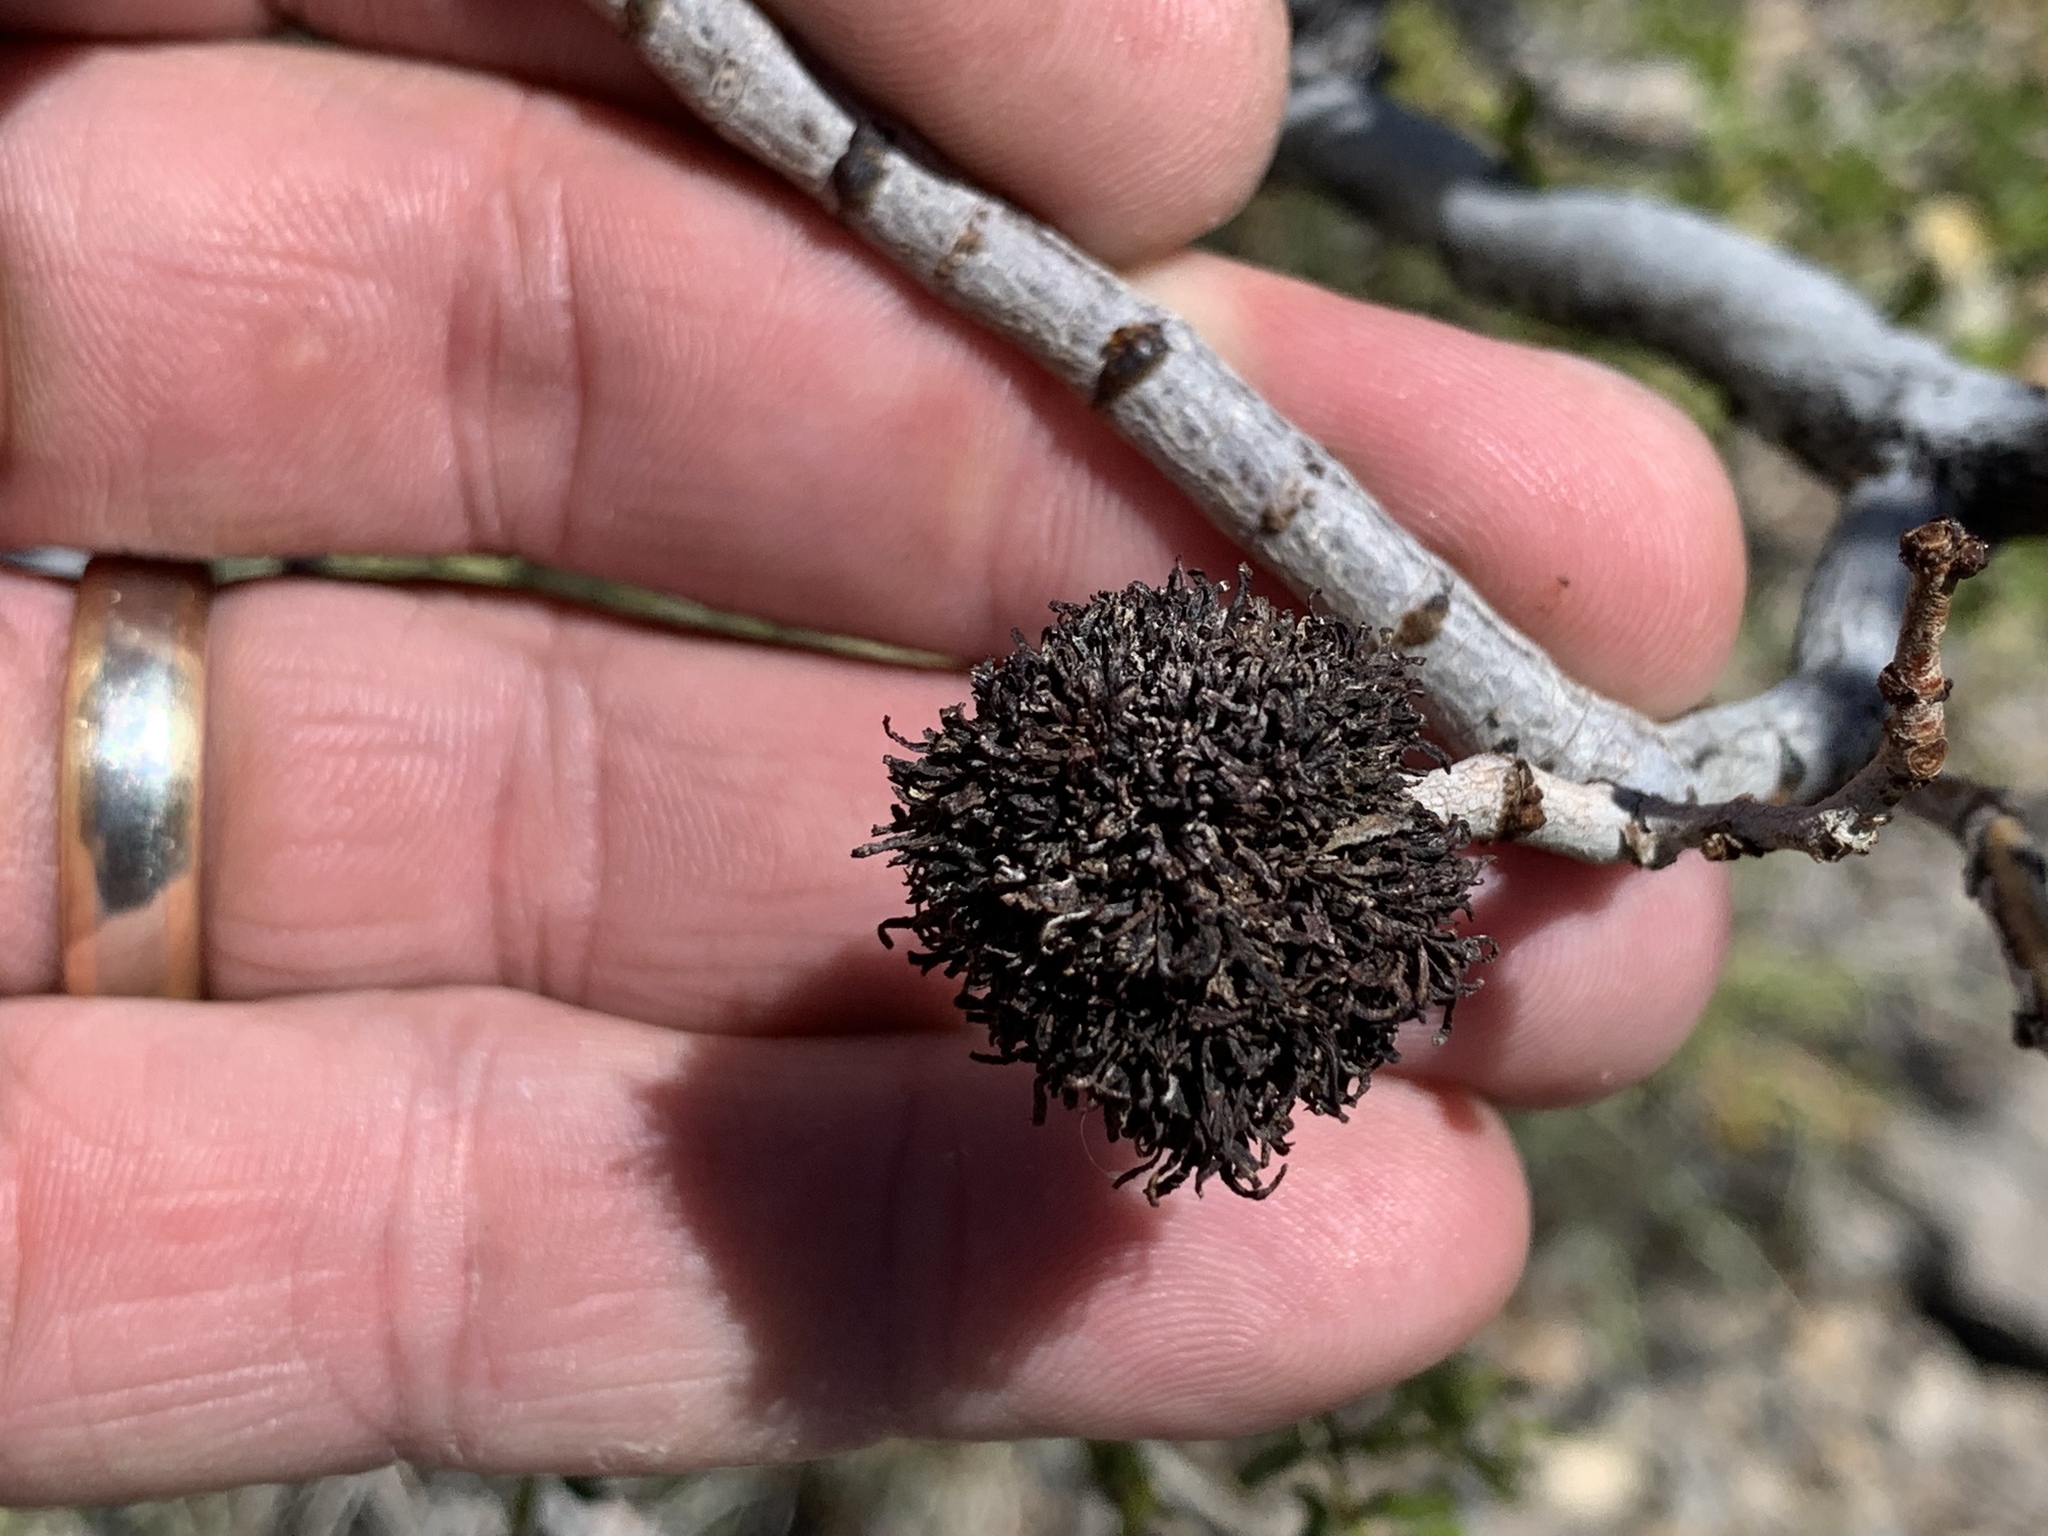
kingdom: Animalia
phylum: Arthropoda
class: Insecta
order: Diptera
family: Cecidomyiidae
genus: Asphondylia
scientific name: Asphondylia auripila
